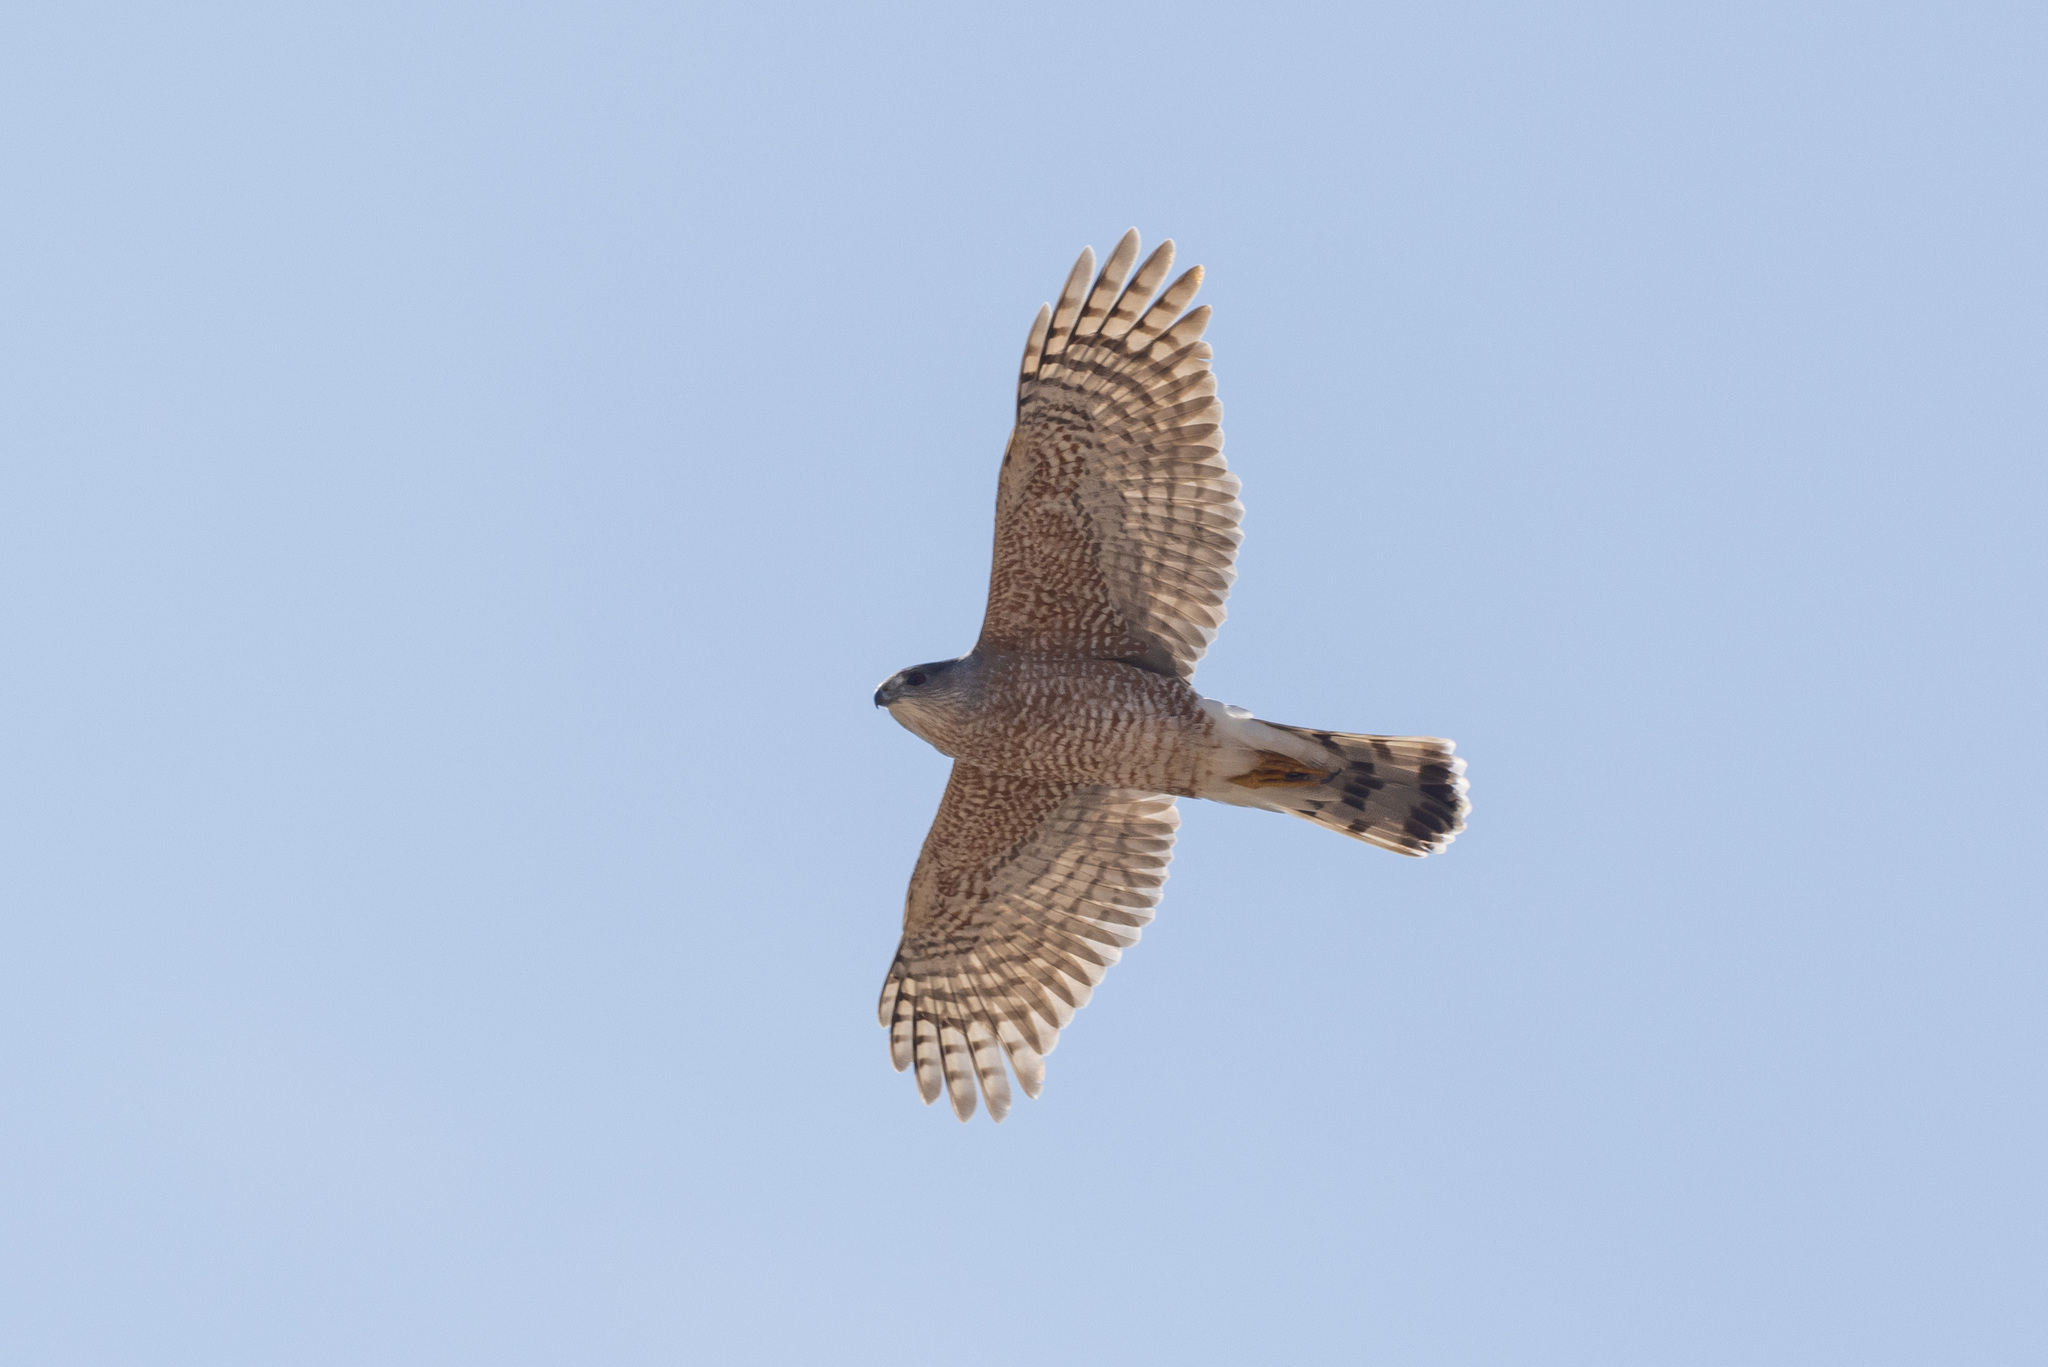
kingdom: Animalia
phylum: Chordata
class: Aves
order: Accipitriformes
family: Accipitridae
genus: Accipiter
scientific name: Accipiter cooperii
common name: Cooper's hawk
